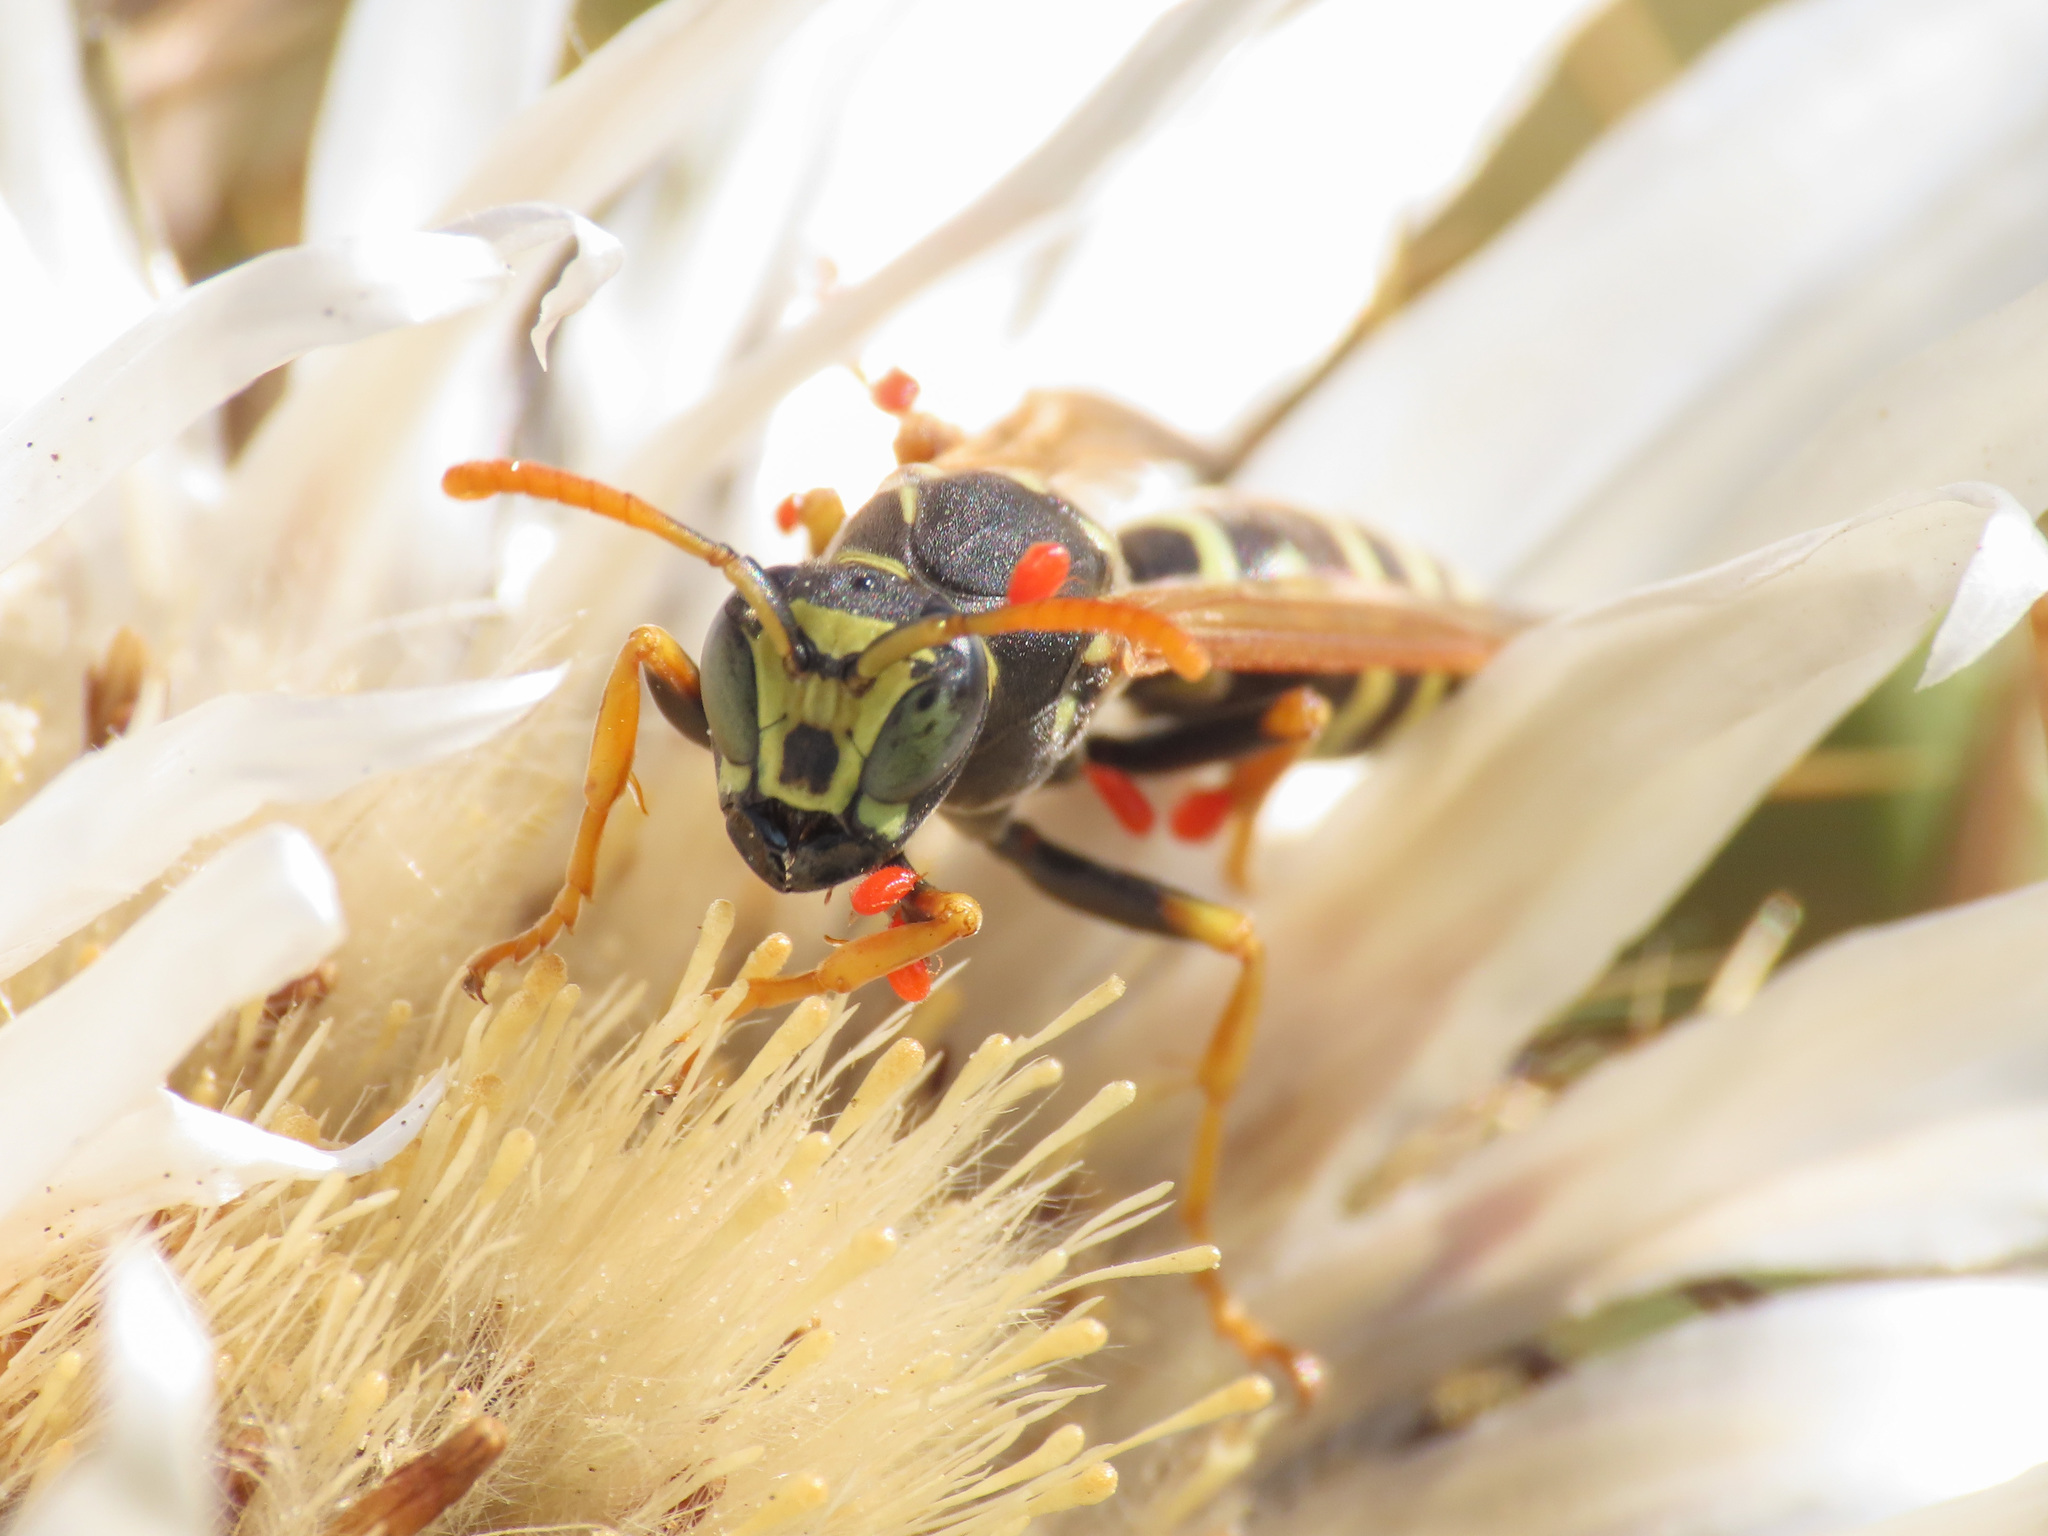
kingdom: Animalia
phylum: Arthropoda
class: Insecta
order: Hymenoptera
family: Eumenidae
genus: Polistes
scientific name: Polistes atrimandibularis
